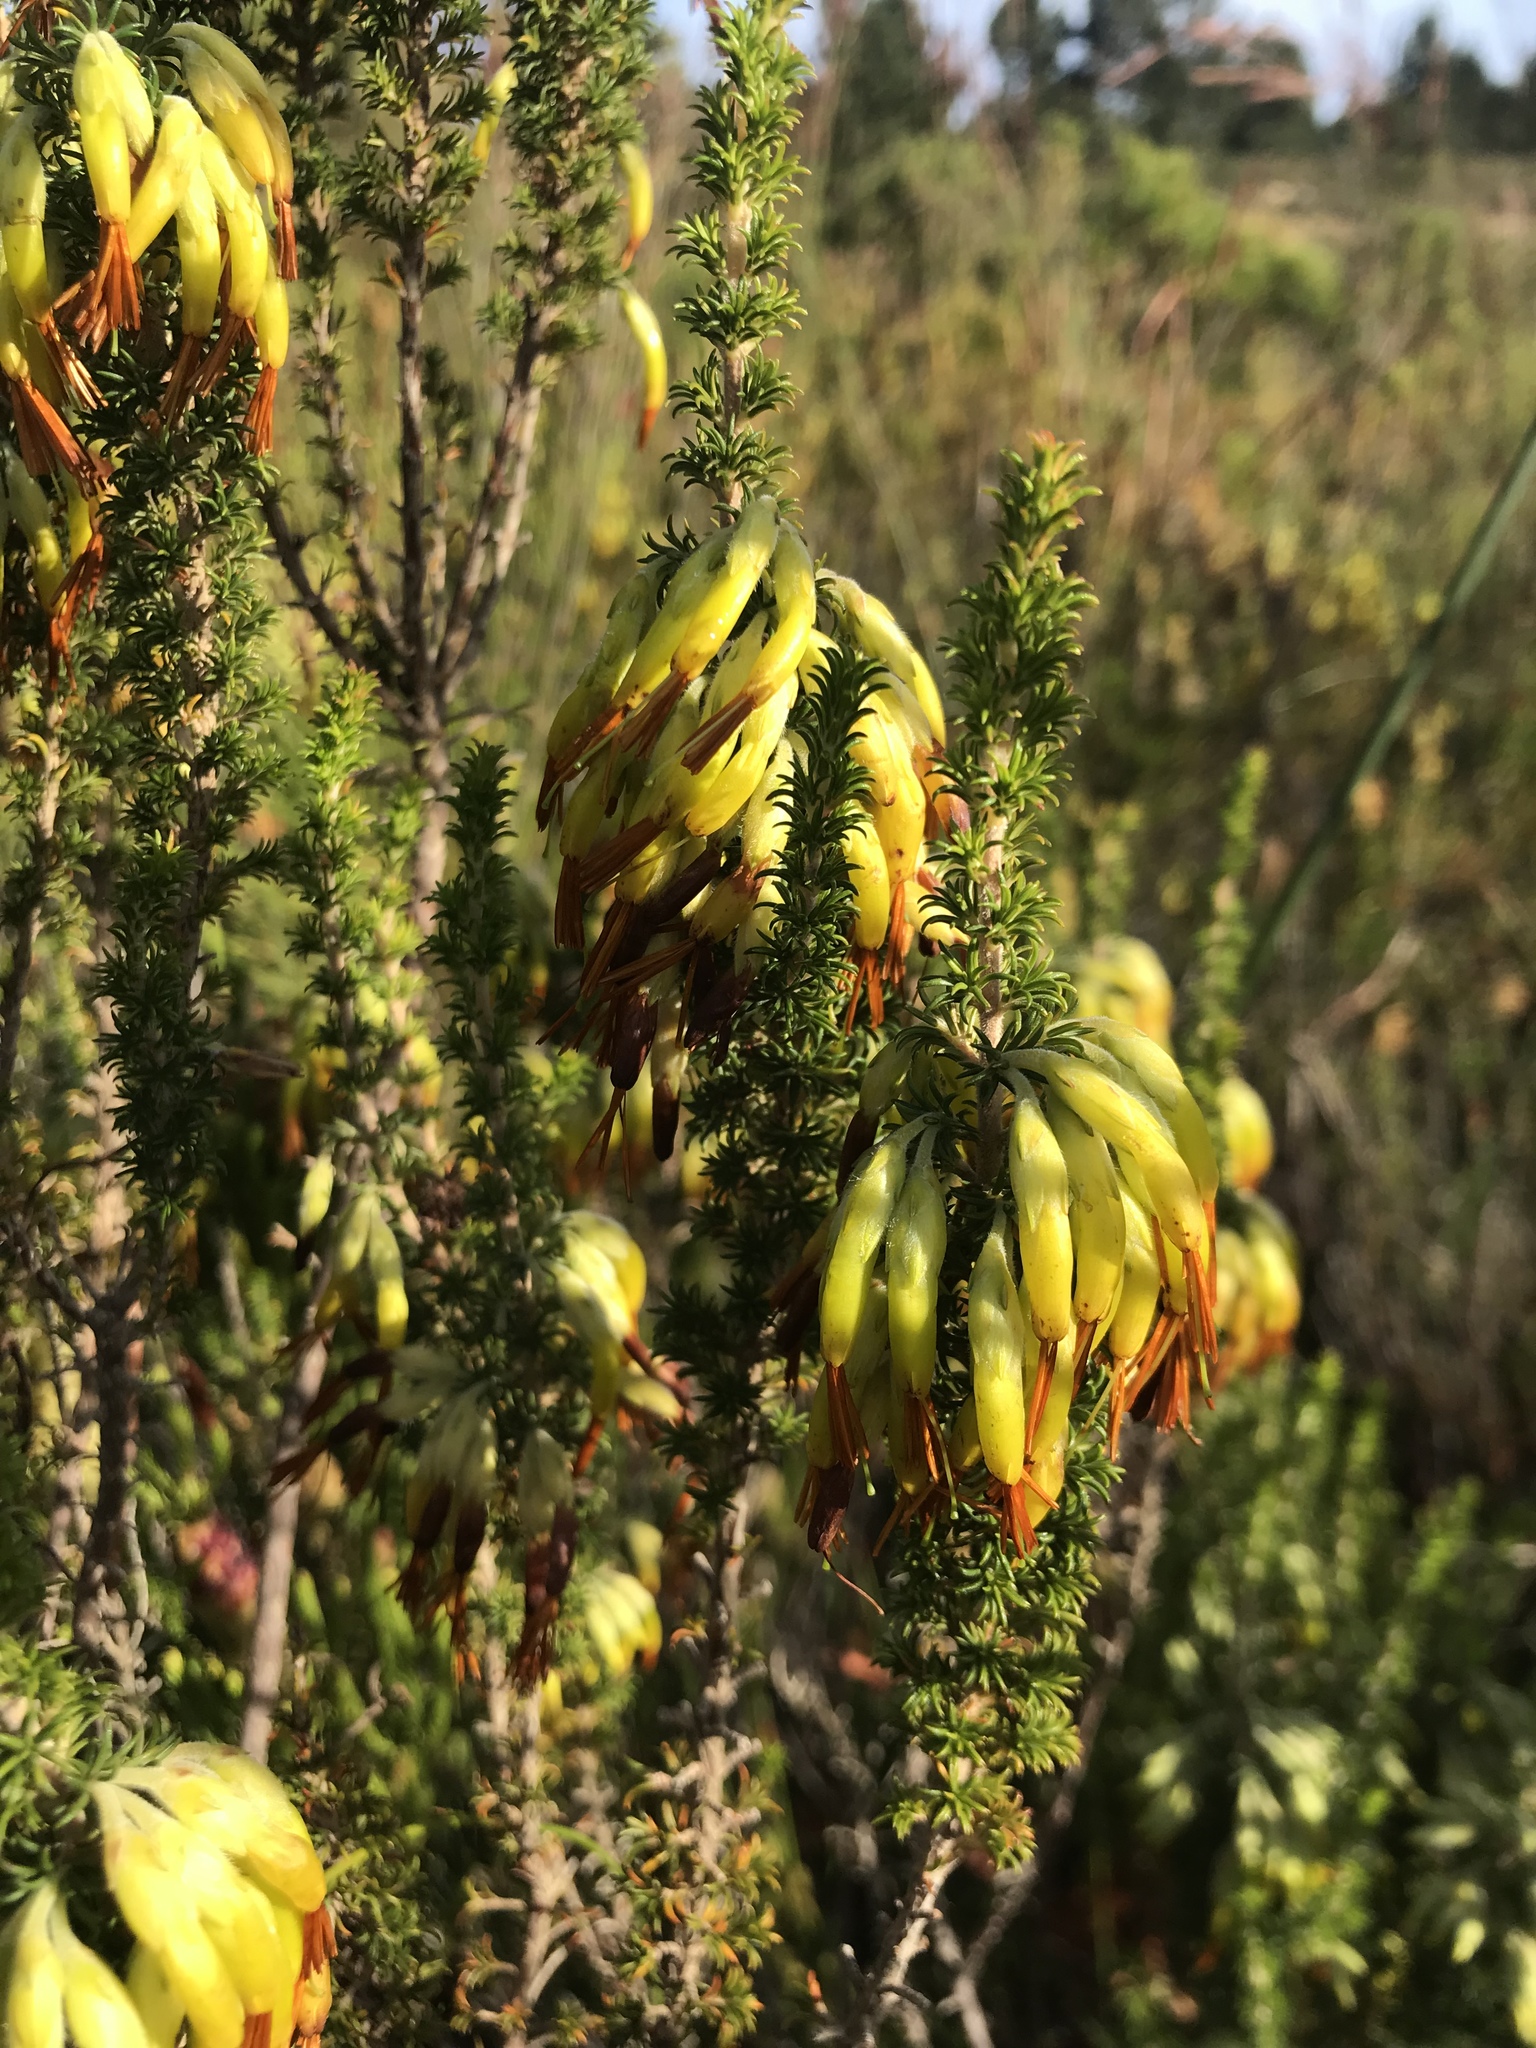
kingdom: Plantae
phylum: Tracheophyta
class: Magnoliopsida
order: Ericales
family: Ericaceae
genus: Erica
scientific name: Erica coccinea
